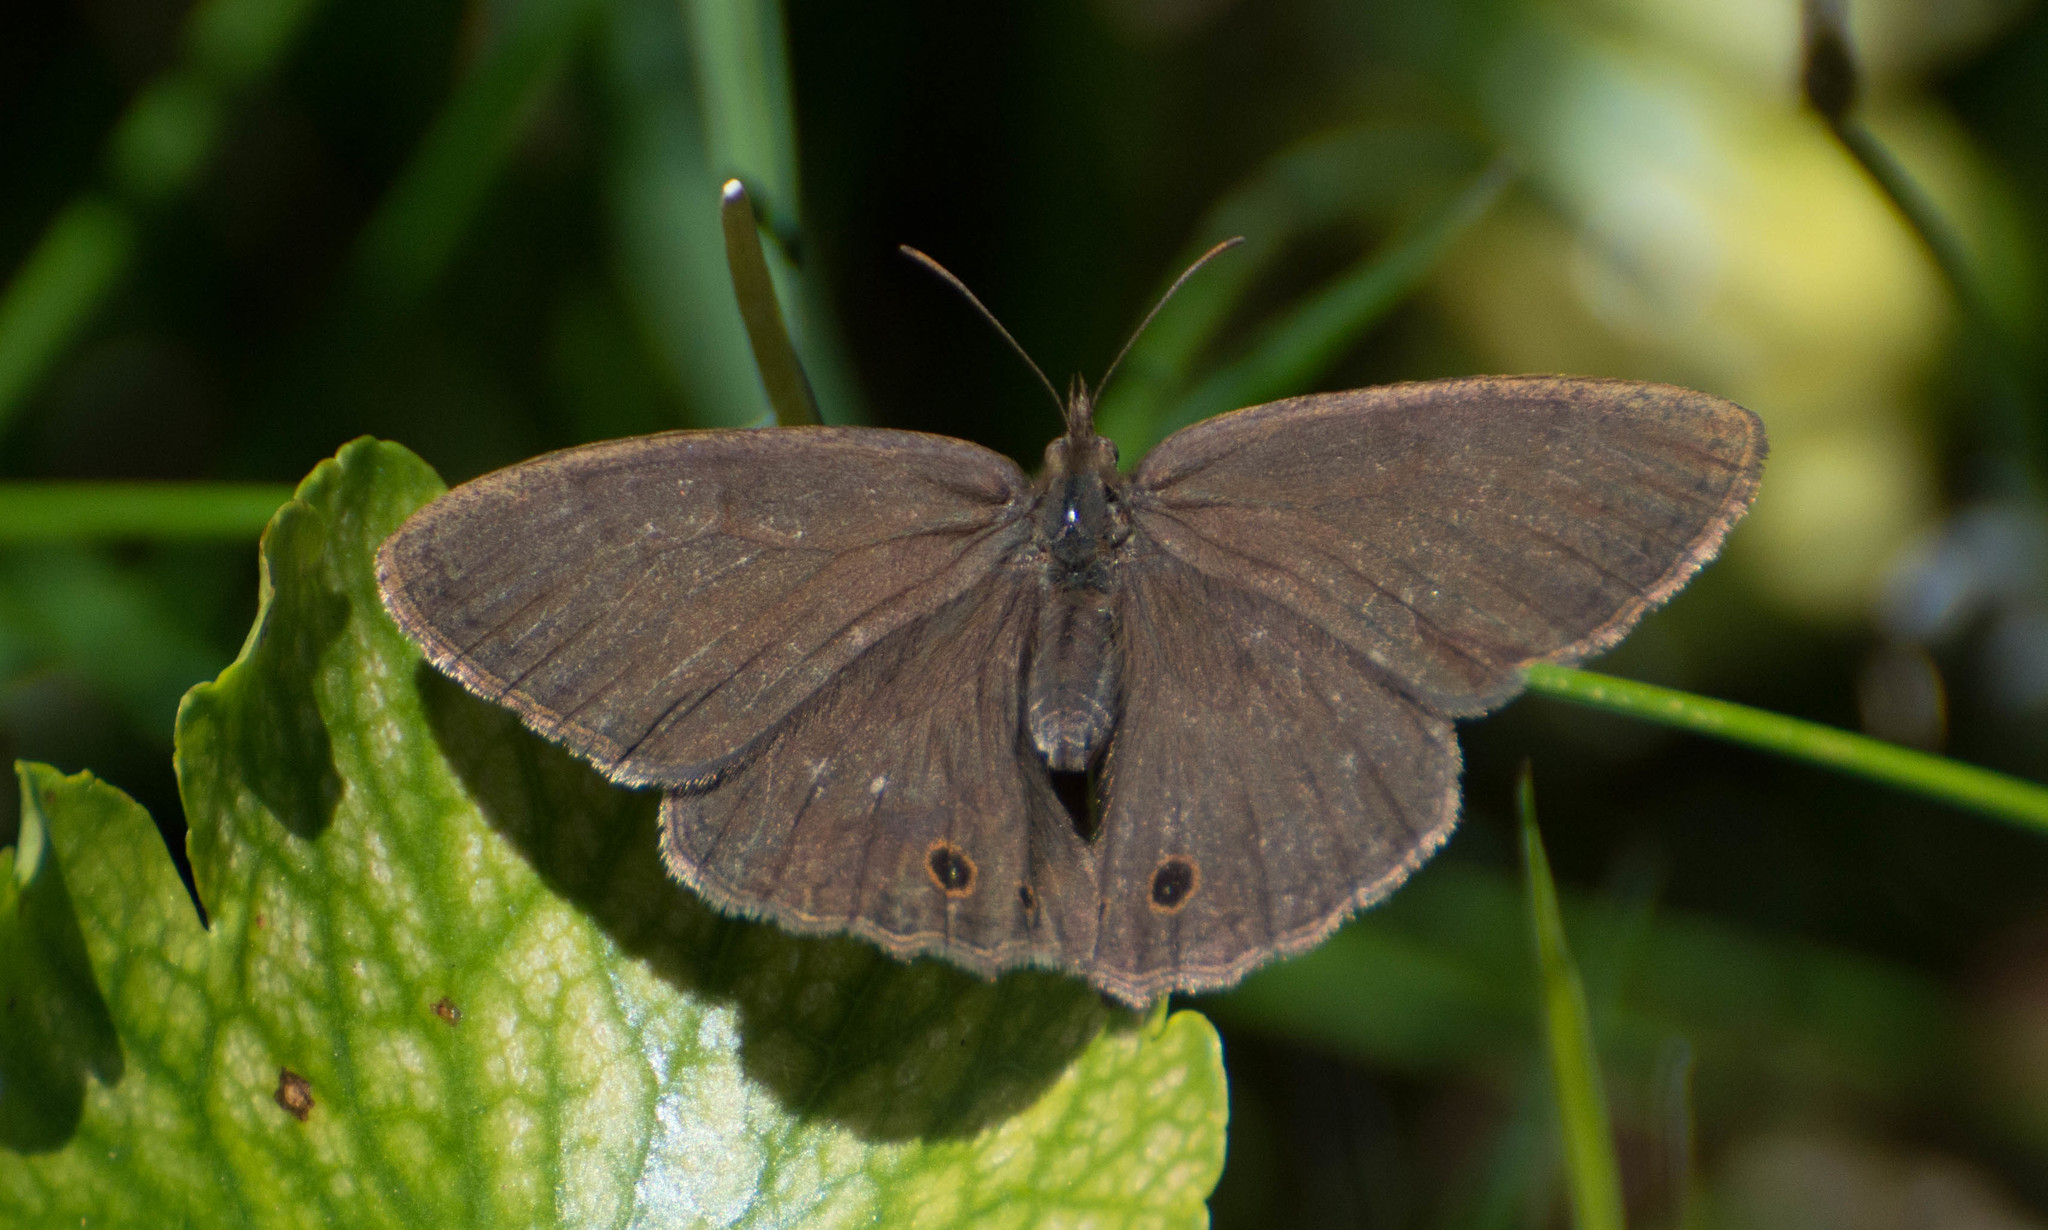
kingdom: Animalia
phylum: Arthropoda
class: Insecta
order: Lepidoptera
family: Nymphalidae
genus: Yphthimoides
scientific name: Yphthimoides celmis
